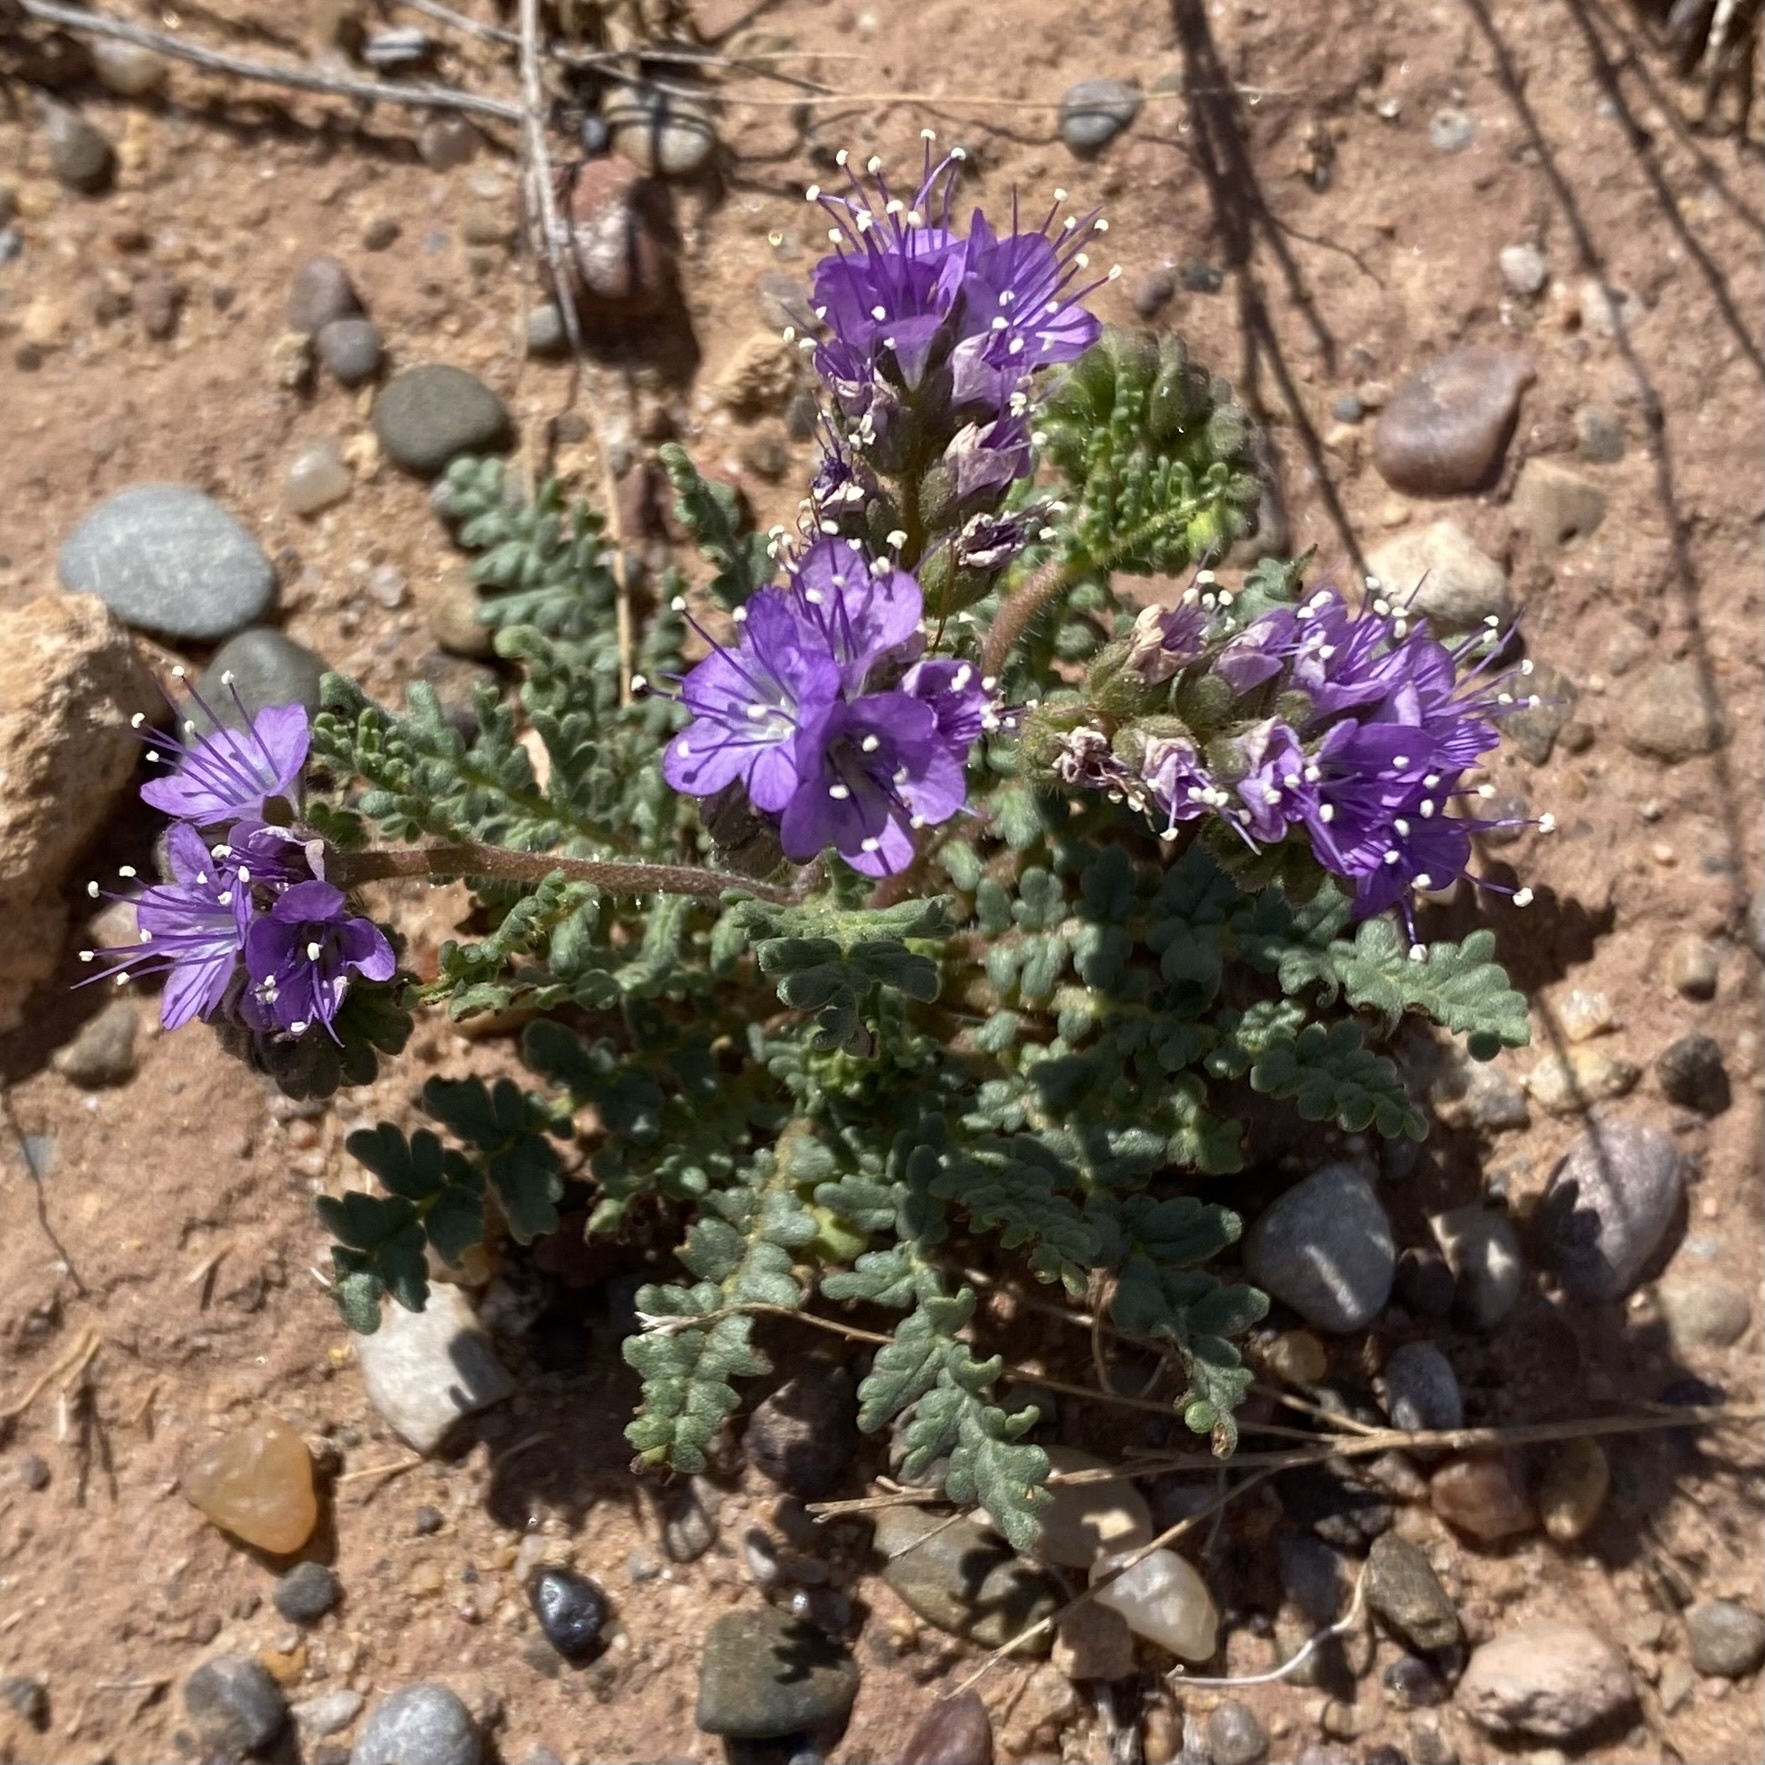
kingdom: Plantae
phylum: Tracheophyta
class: Magnoliopsida
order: Boraginales
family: Hydrophyllaceae
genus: Phacelia
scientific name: Phacelia popei
